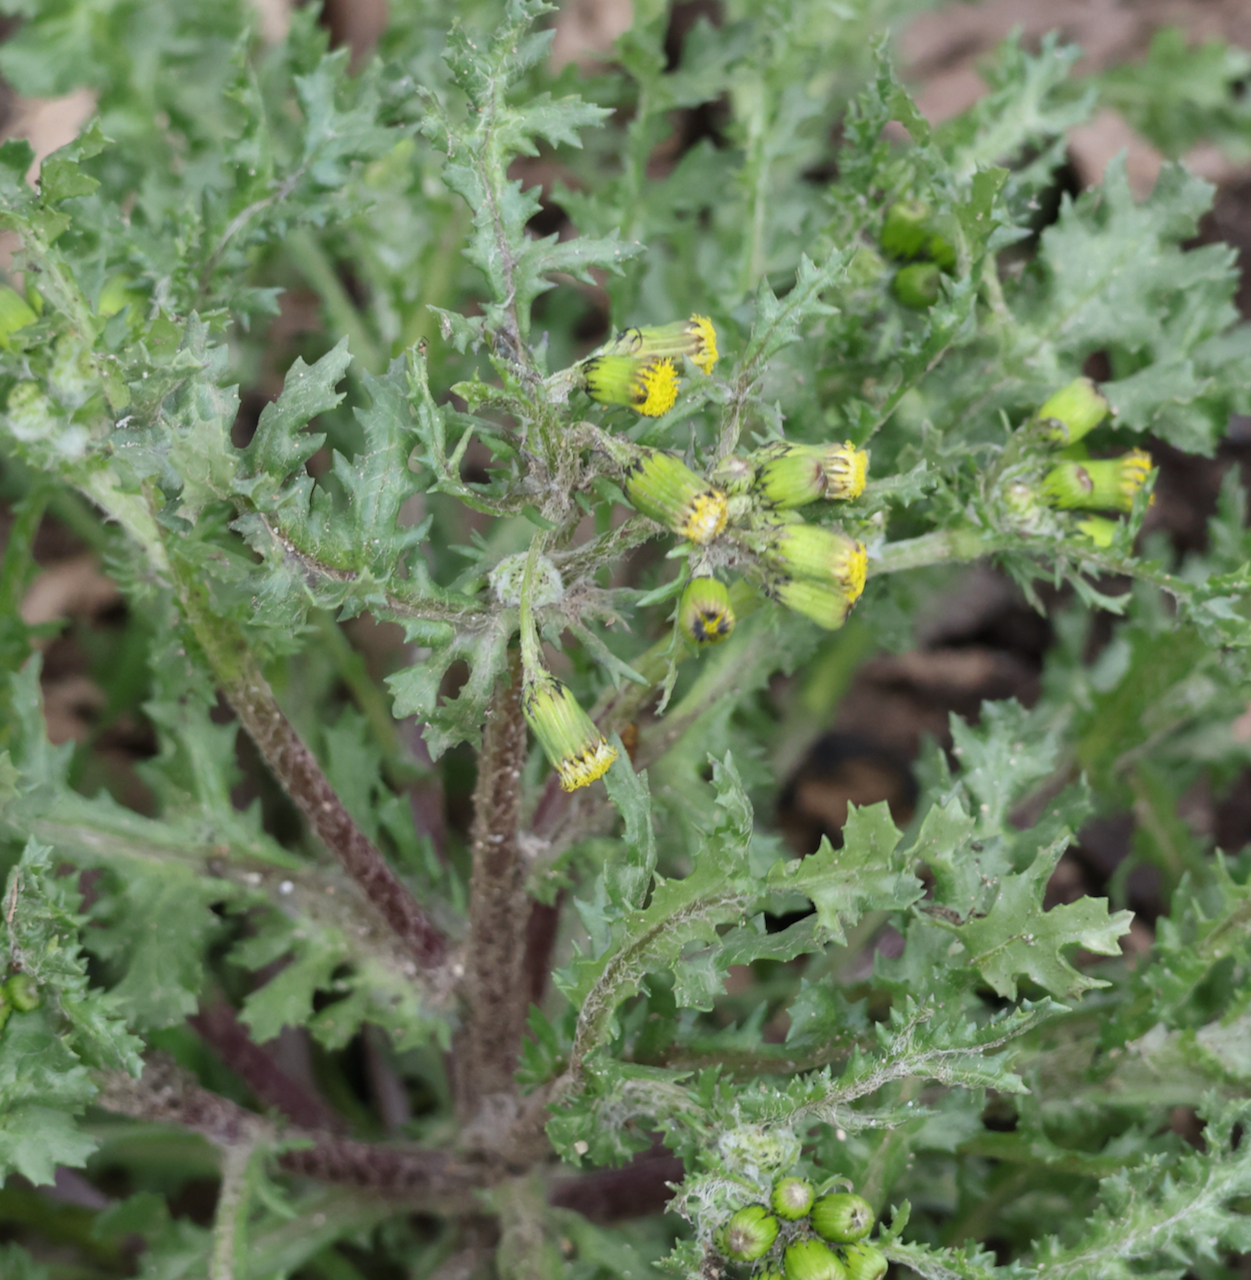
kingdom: Plantae
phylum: Tracheophyta
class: Magnoliopsida
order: Asterales
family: Asteraceae
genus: Senecio
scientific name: Senecio vulgaris
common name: Old-man-in-the-spring
